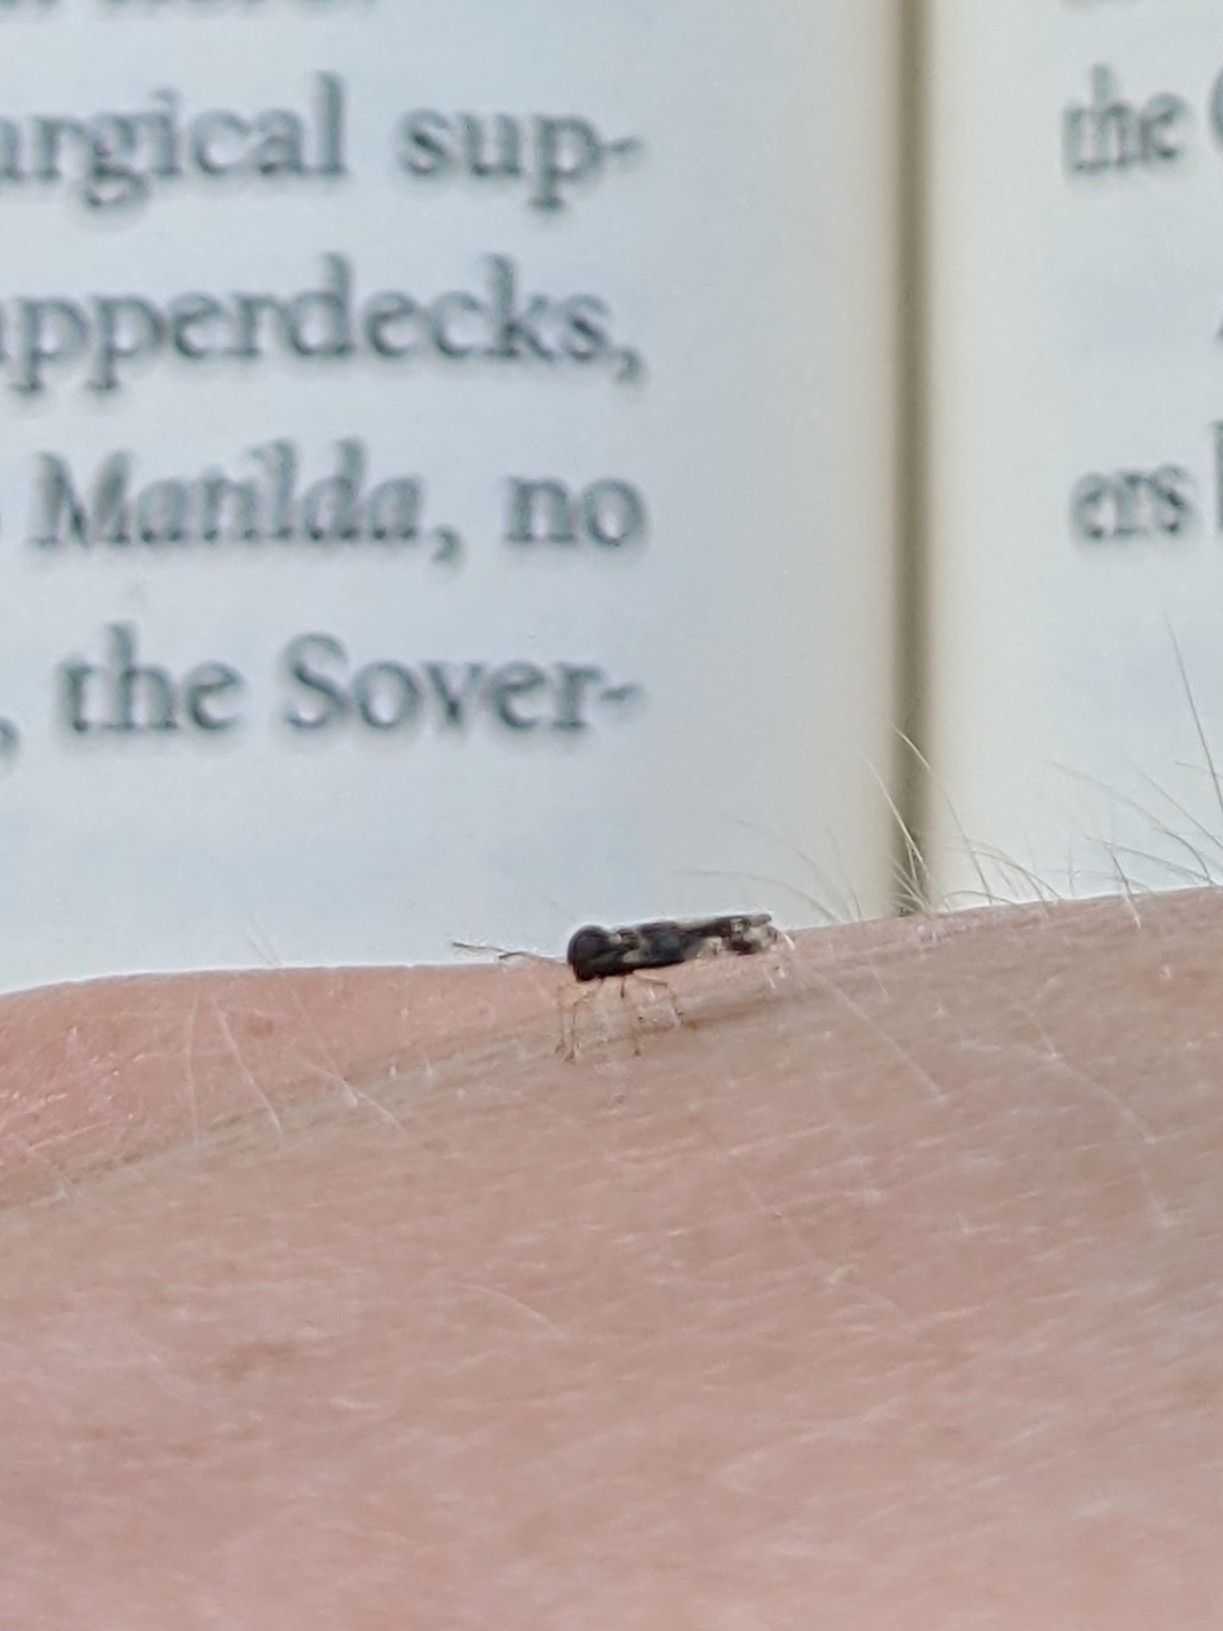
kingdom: Animalia
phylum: Arthropoda
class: Insecta
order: Hemiptera
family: Tingidae
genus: Stephanitis
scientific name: Stephanitis takeyai
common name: Andromeda lacebug
